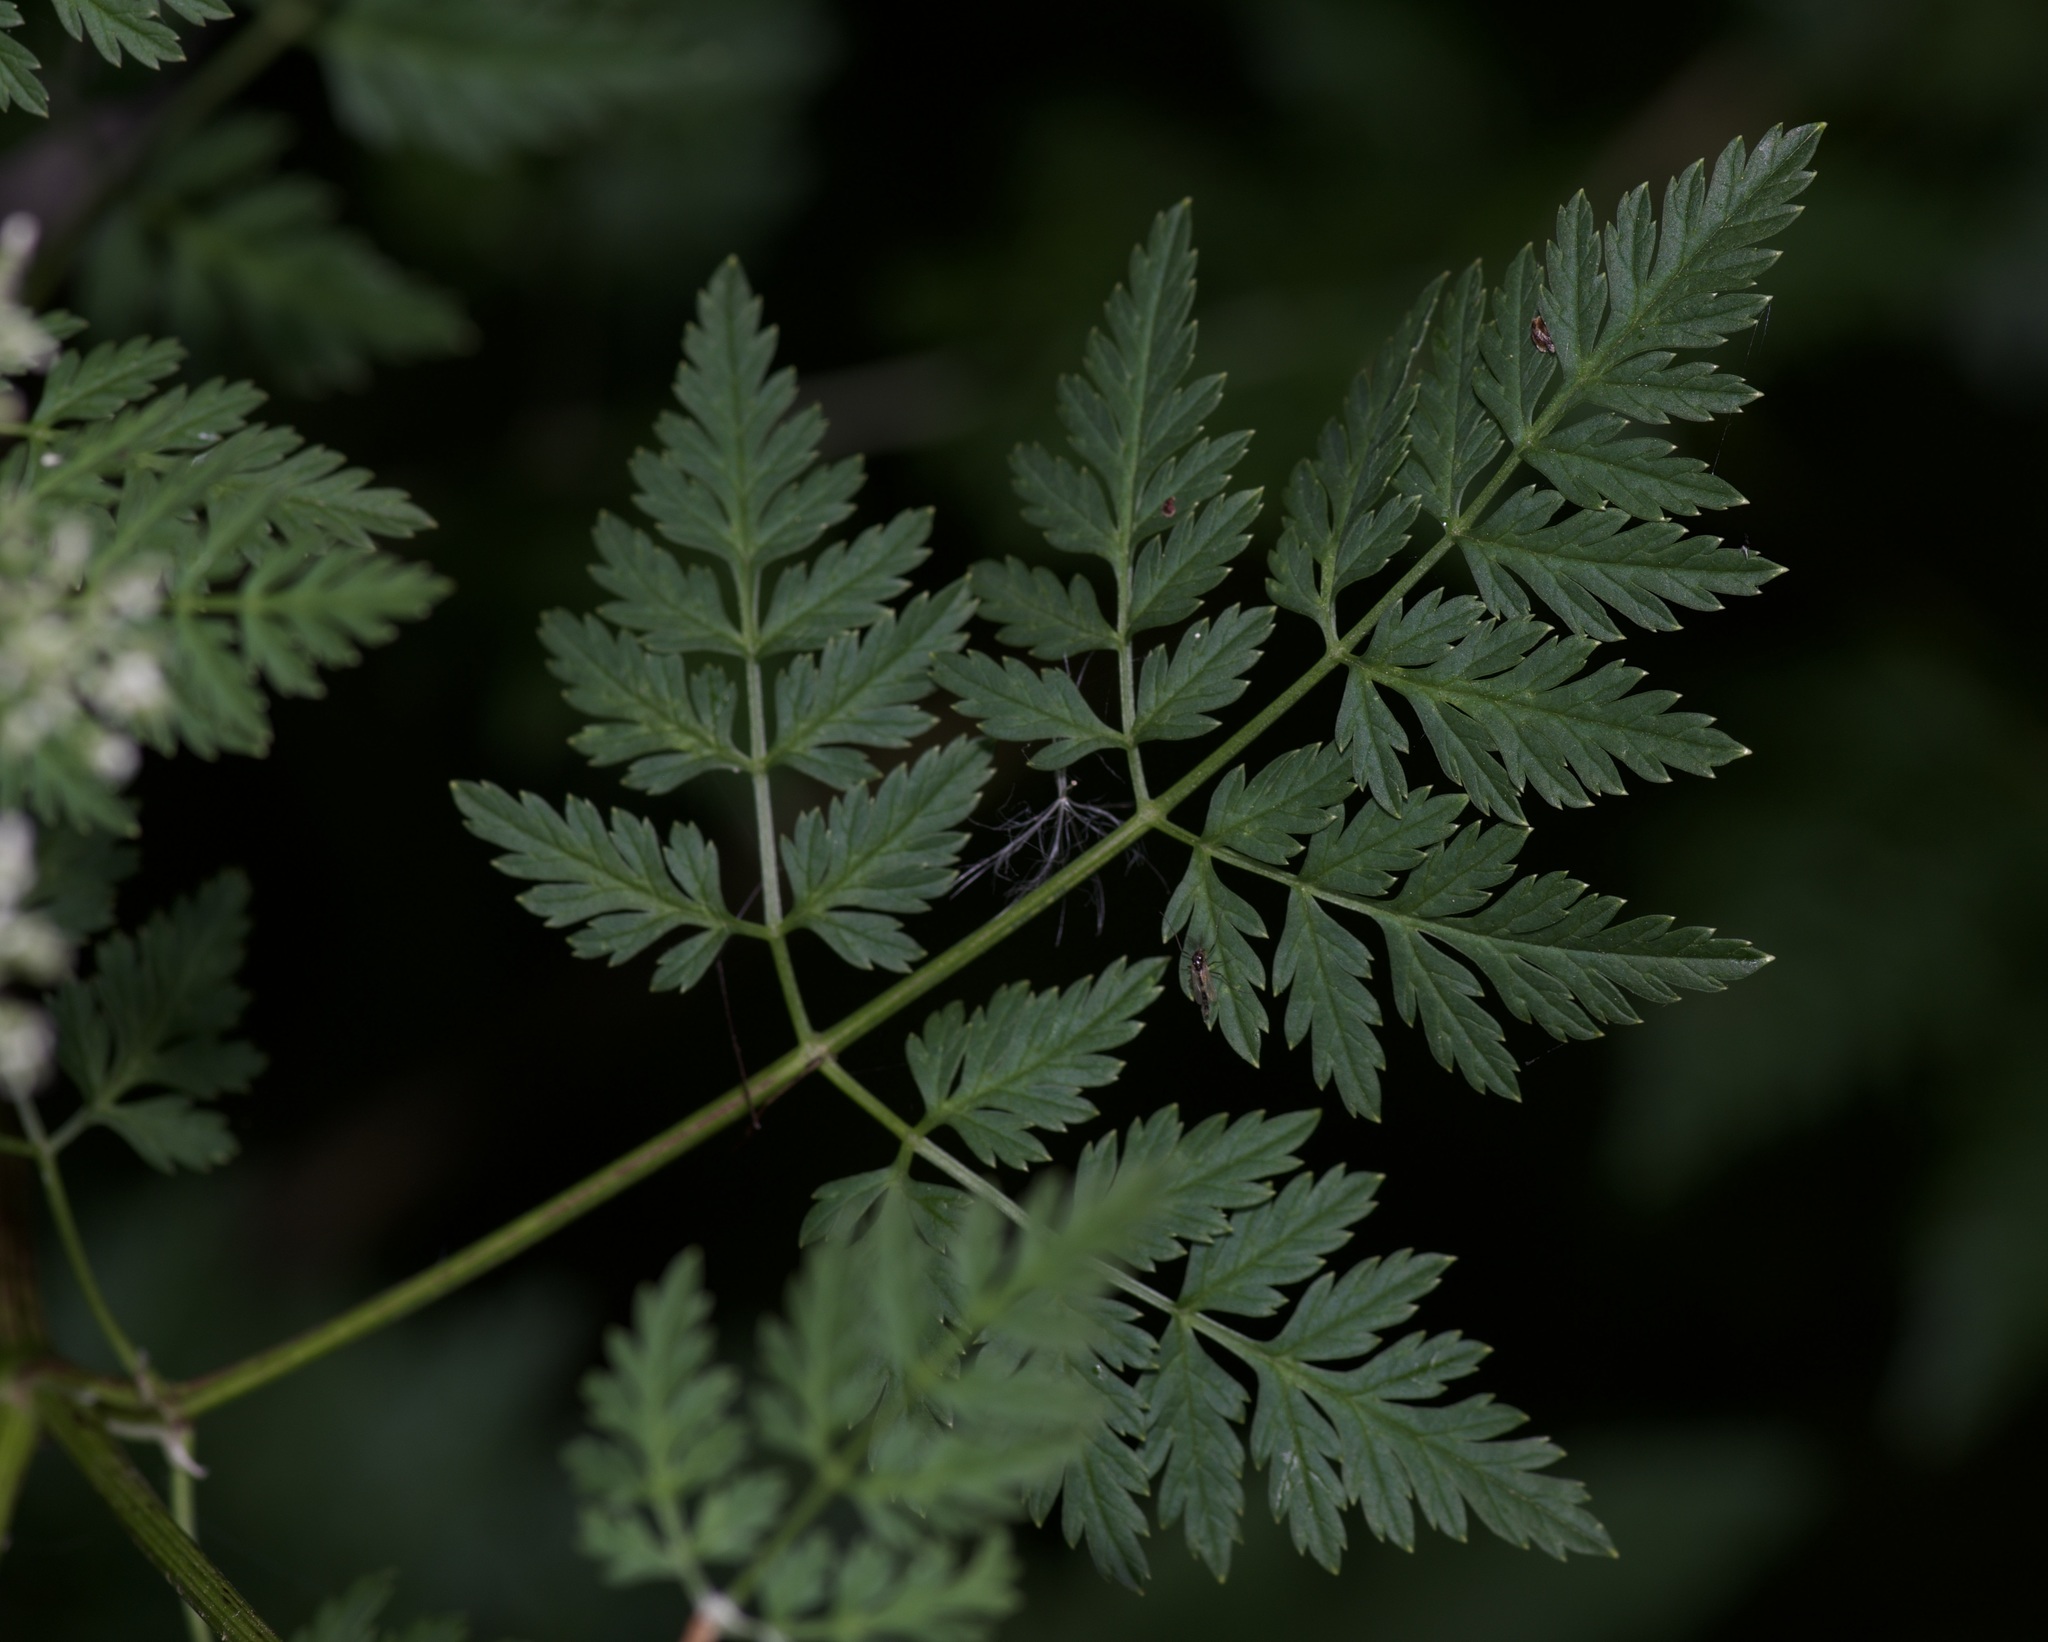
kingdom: Plantae
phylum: Tracheophyta
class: Magnoliopsida
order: Apiales
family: Apiaceae
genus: Conium
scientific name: Conium maculatum
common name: Hemlock
